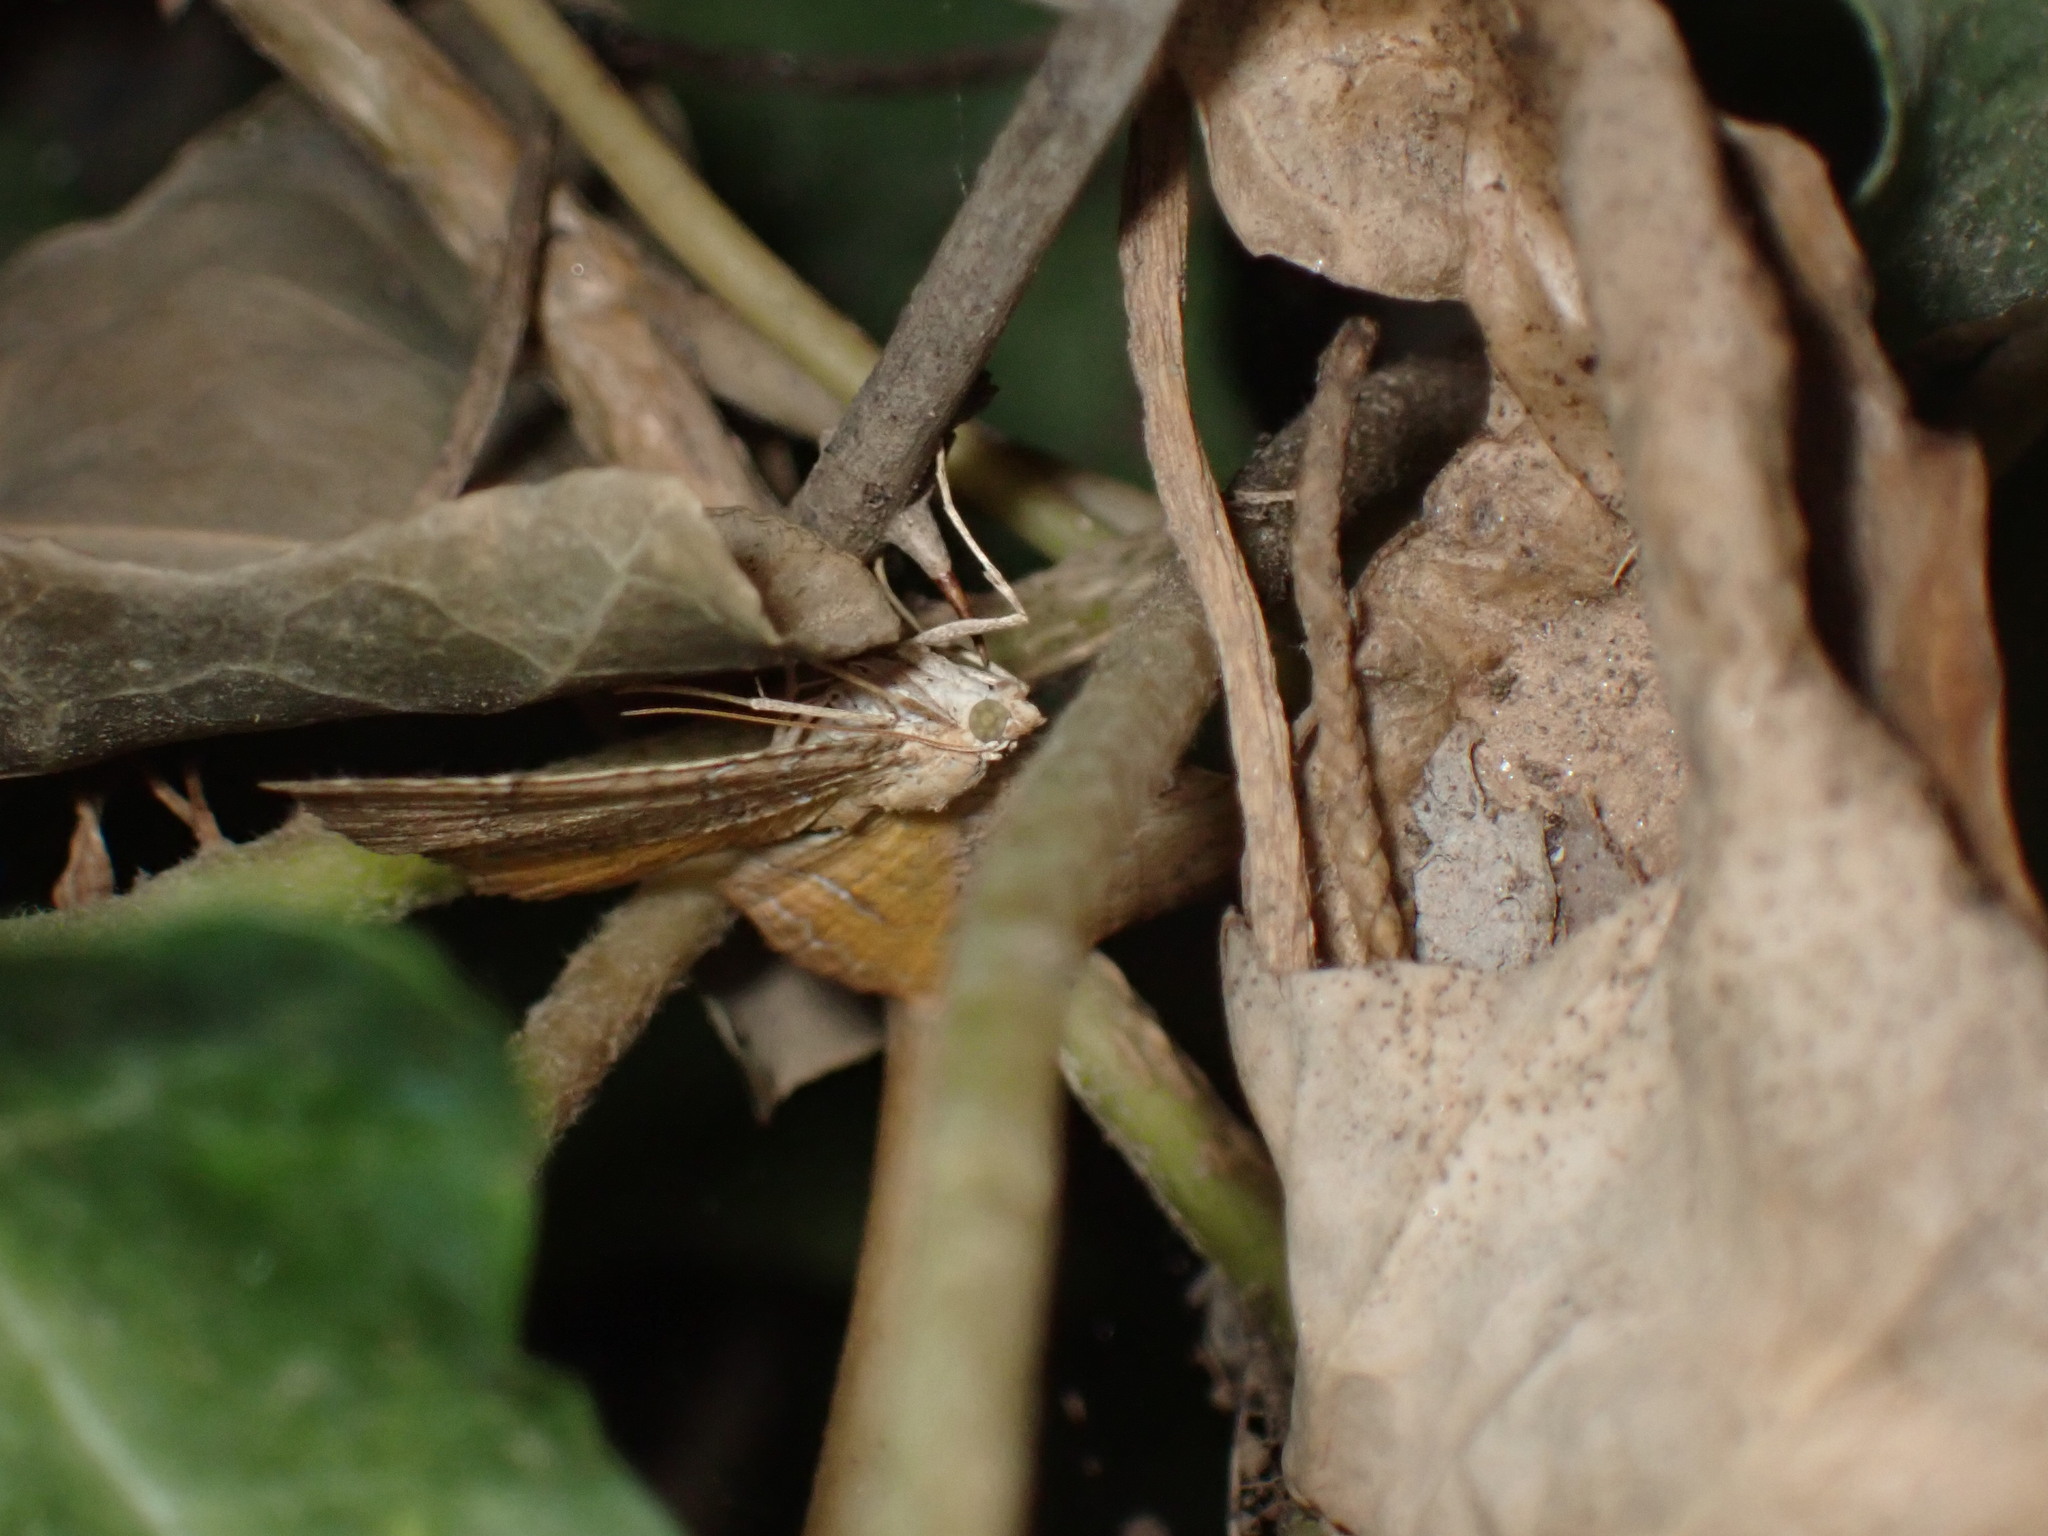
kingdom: Animalia
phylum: Arthropoda
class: Insecta
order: Lepidoptera
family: Geometridae
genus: Camptogramma
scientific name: Camptogramma bilineata
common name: Yellow shell
